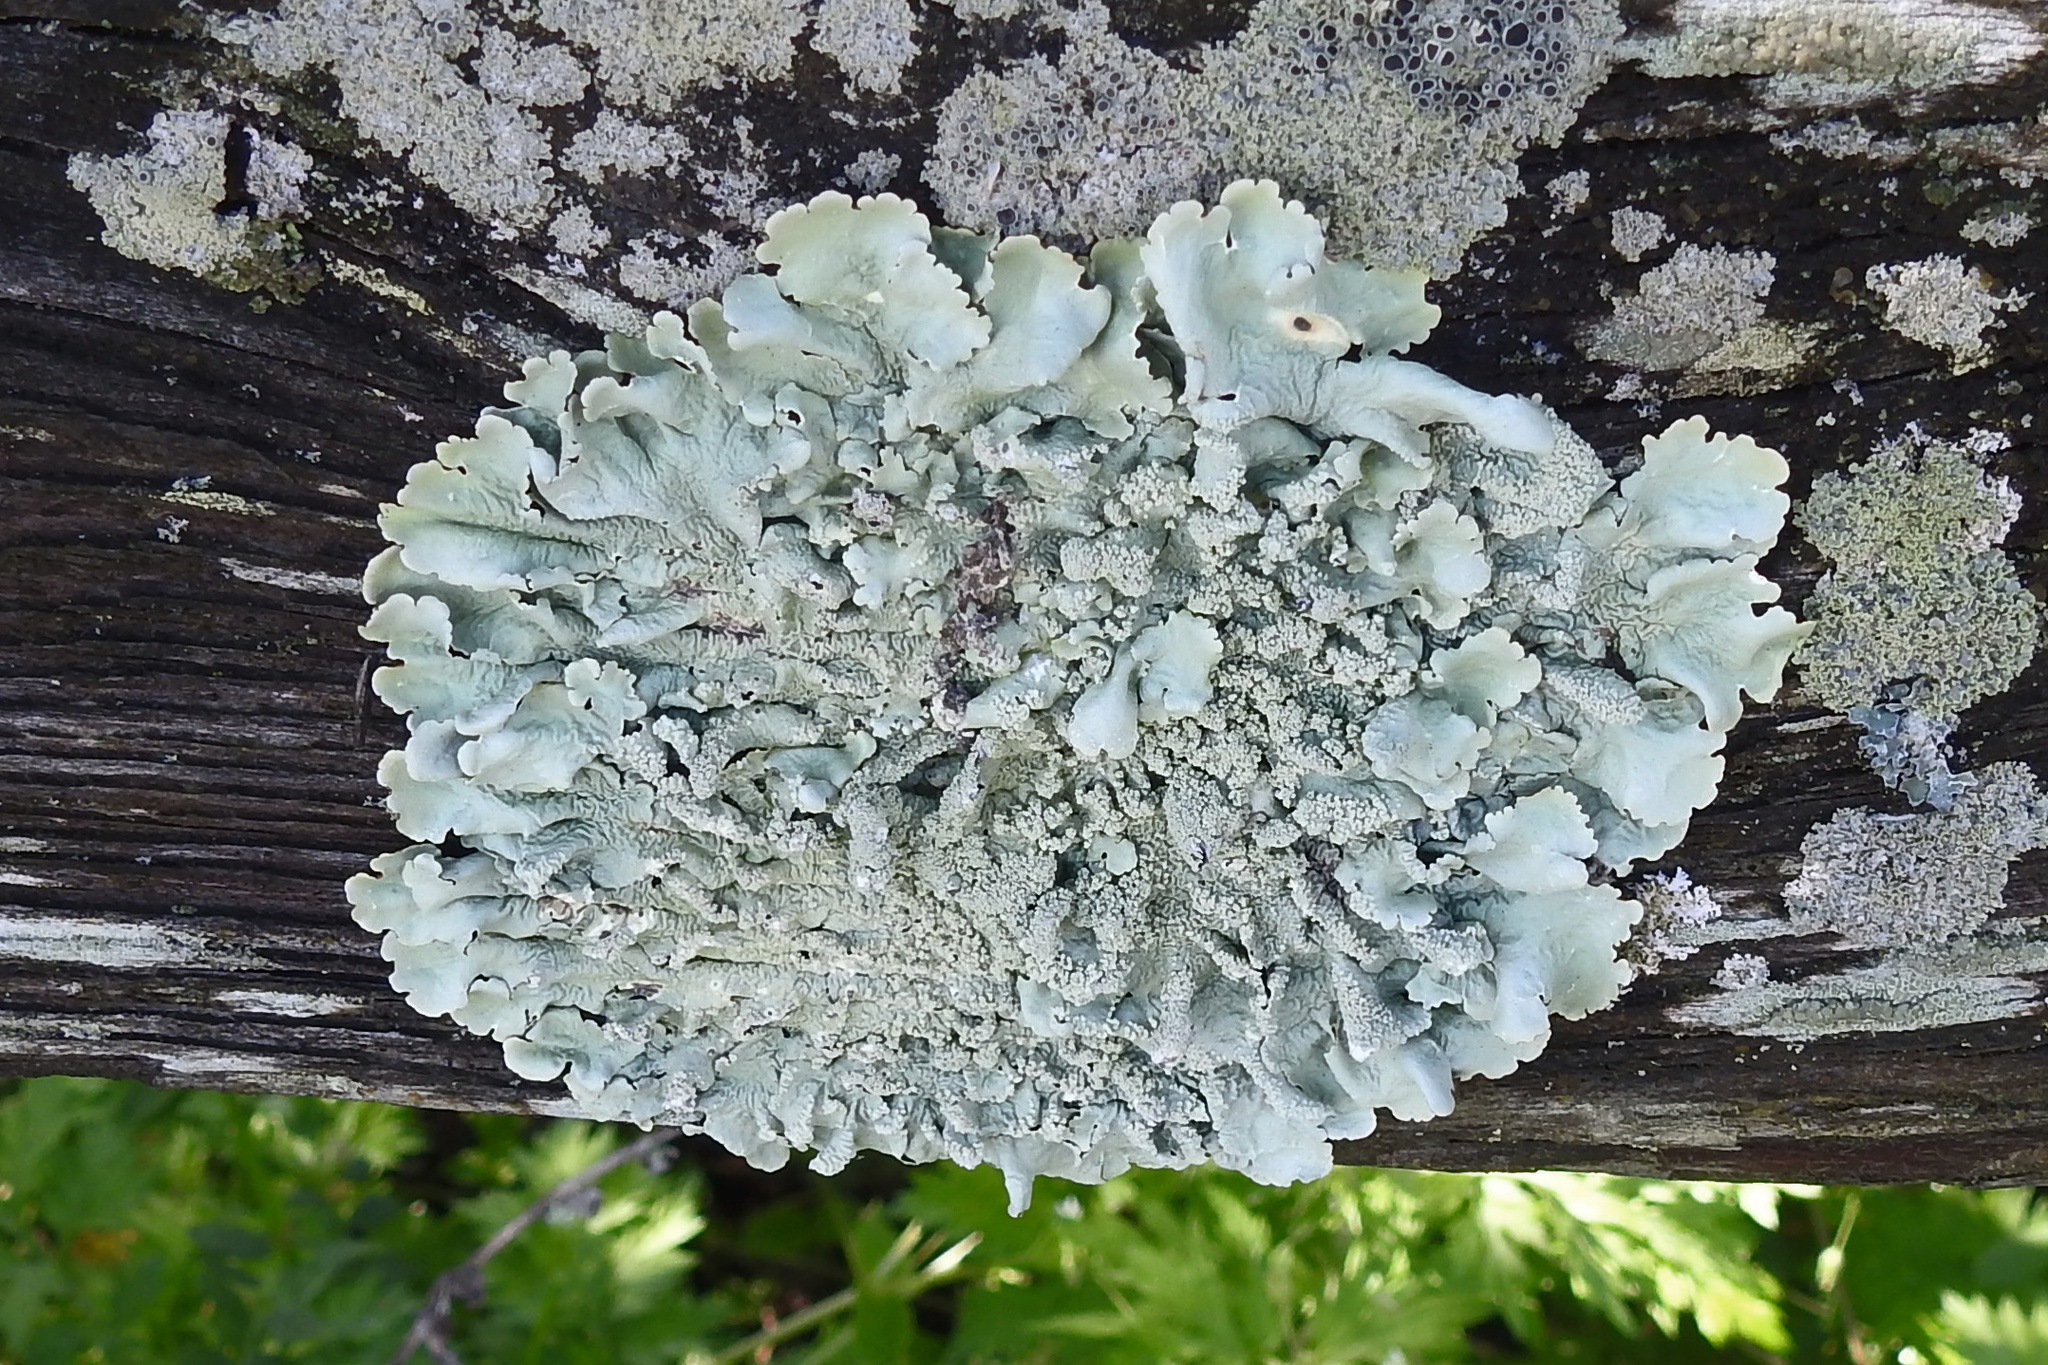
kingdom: Fungi
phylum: Ascomycota
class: Lecanoromycetes
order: Lecanorales
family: Parmeliaceae
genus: Flavoparmelia
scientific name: Flavoparmelia caperata
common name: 40-mile per hour lichen
